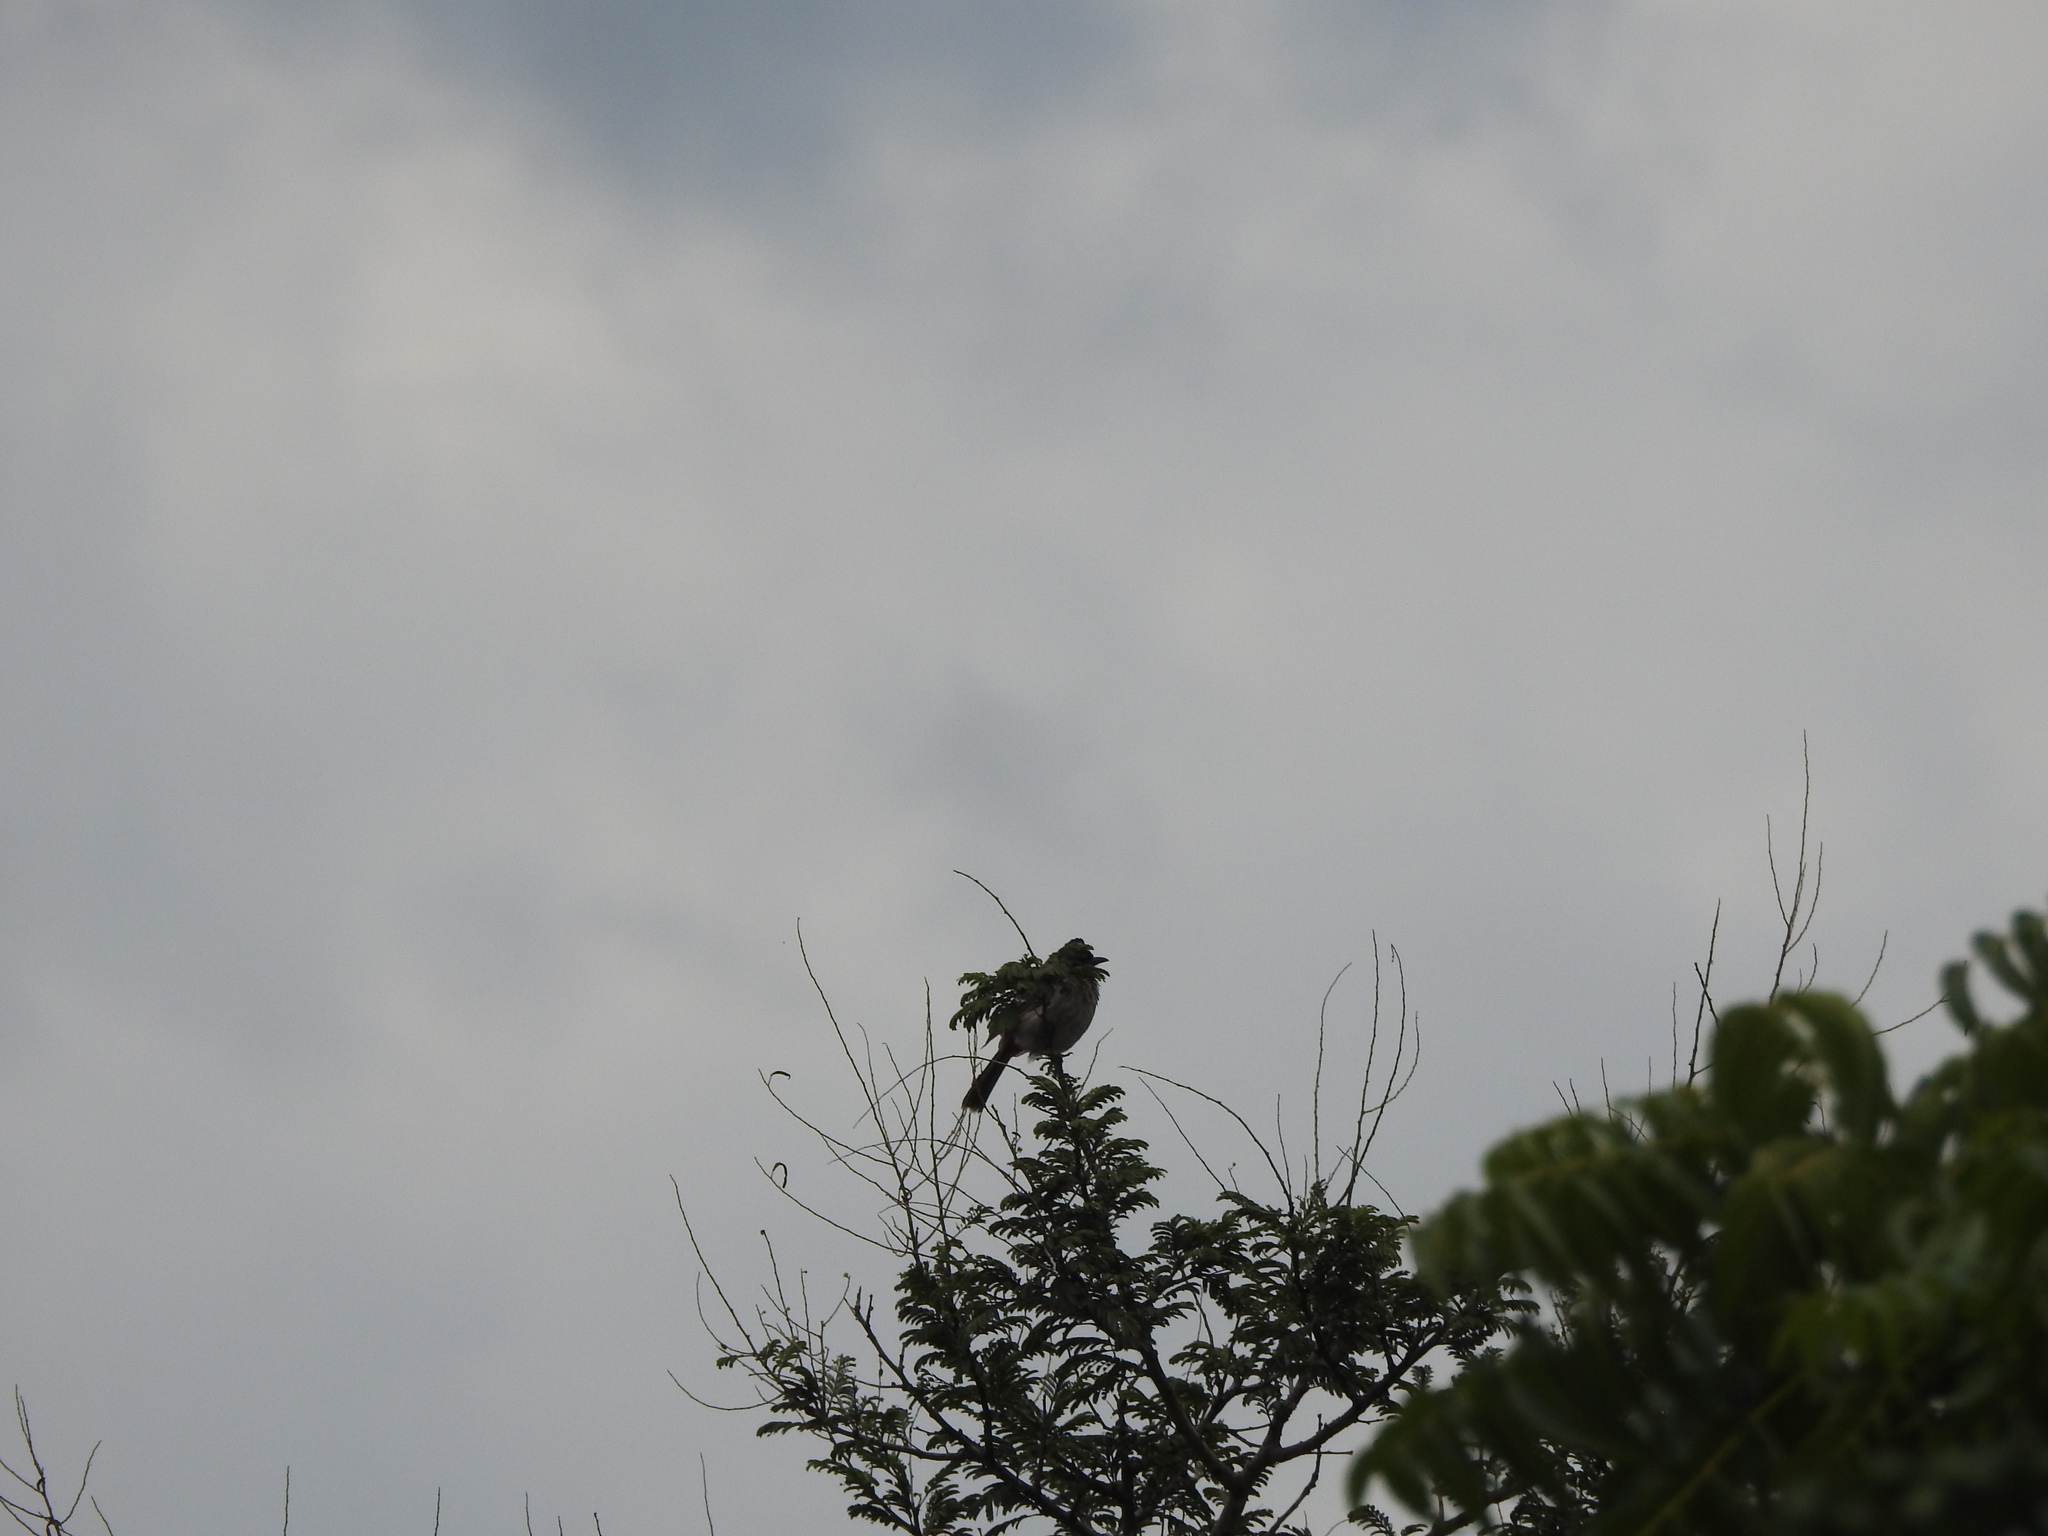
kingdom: Animalia
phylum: Chordata
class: Aves
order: Passeriformes
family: Pycnonotidae
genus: Pycnonotus
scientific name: Pycnonotus cafer
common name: Red-vented bulbul
